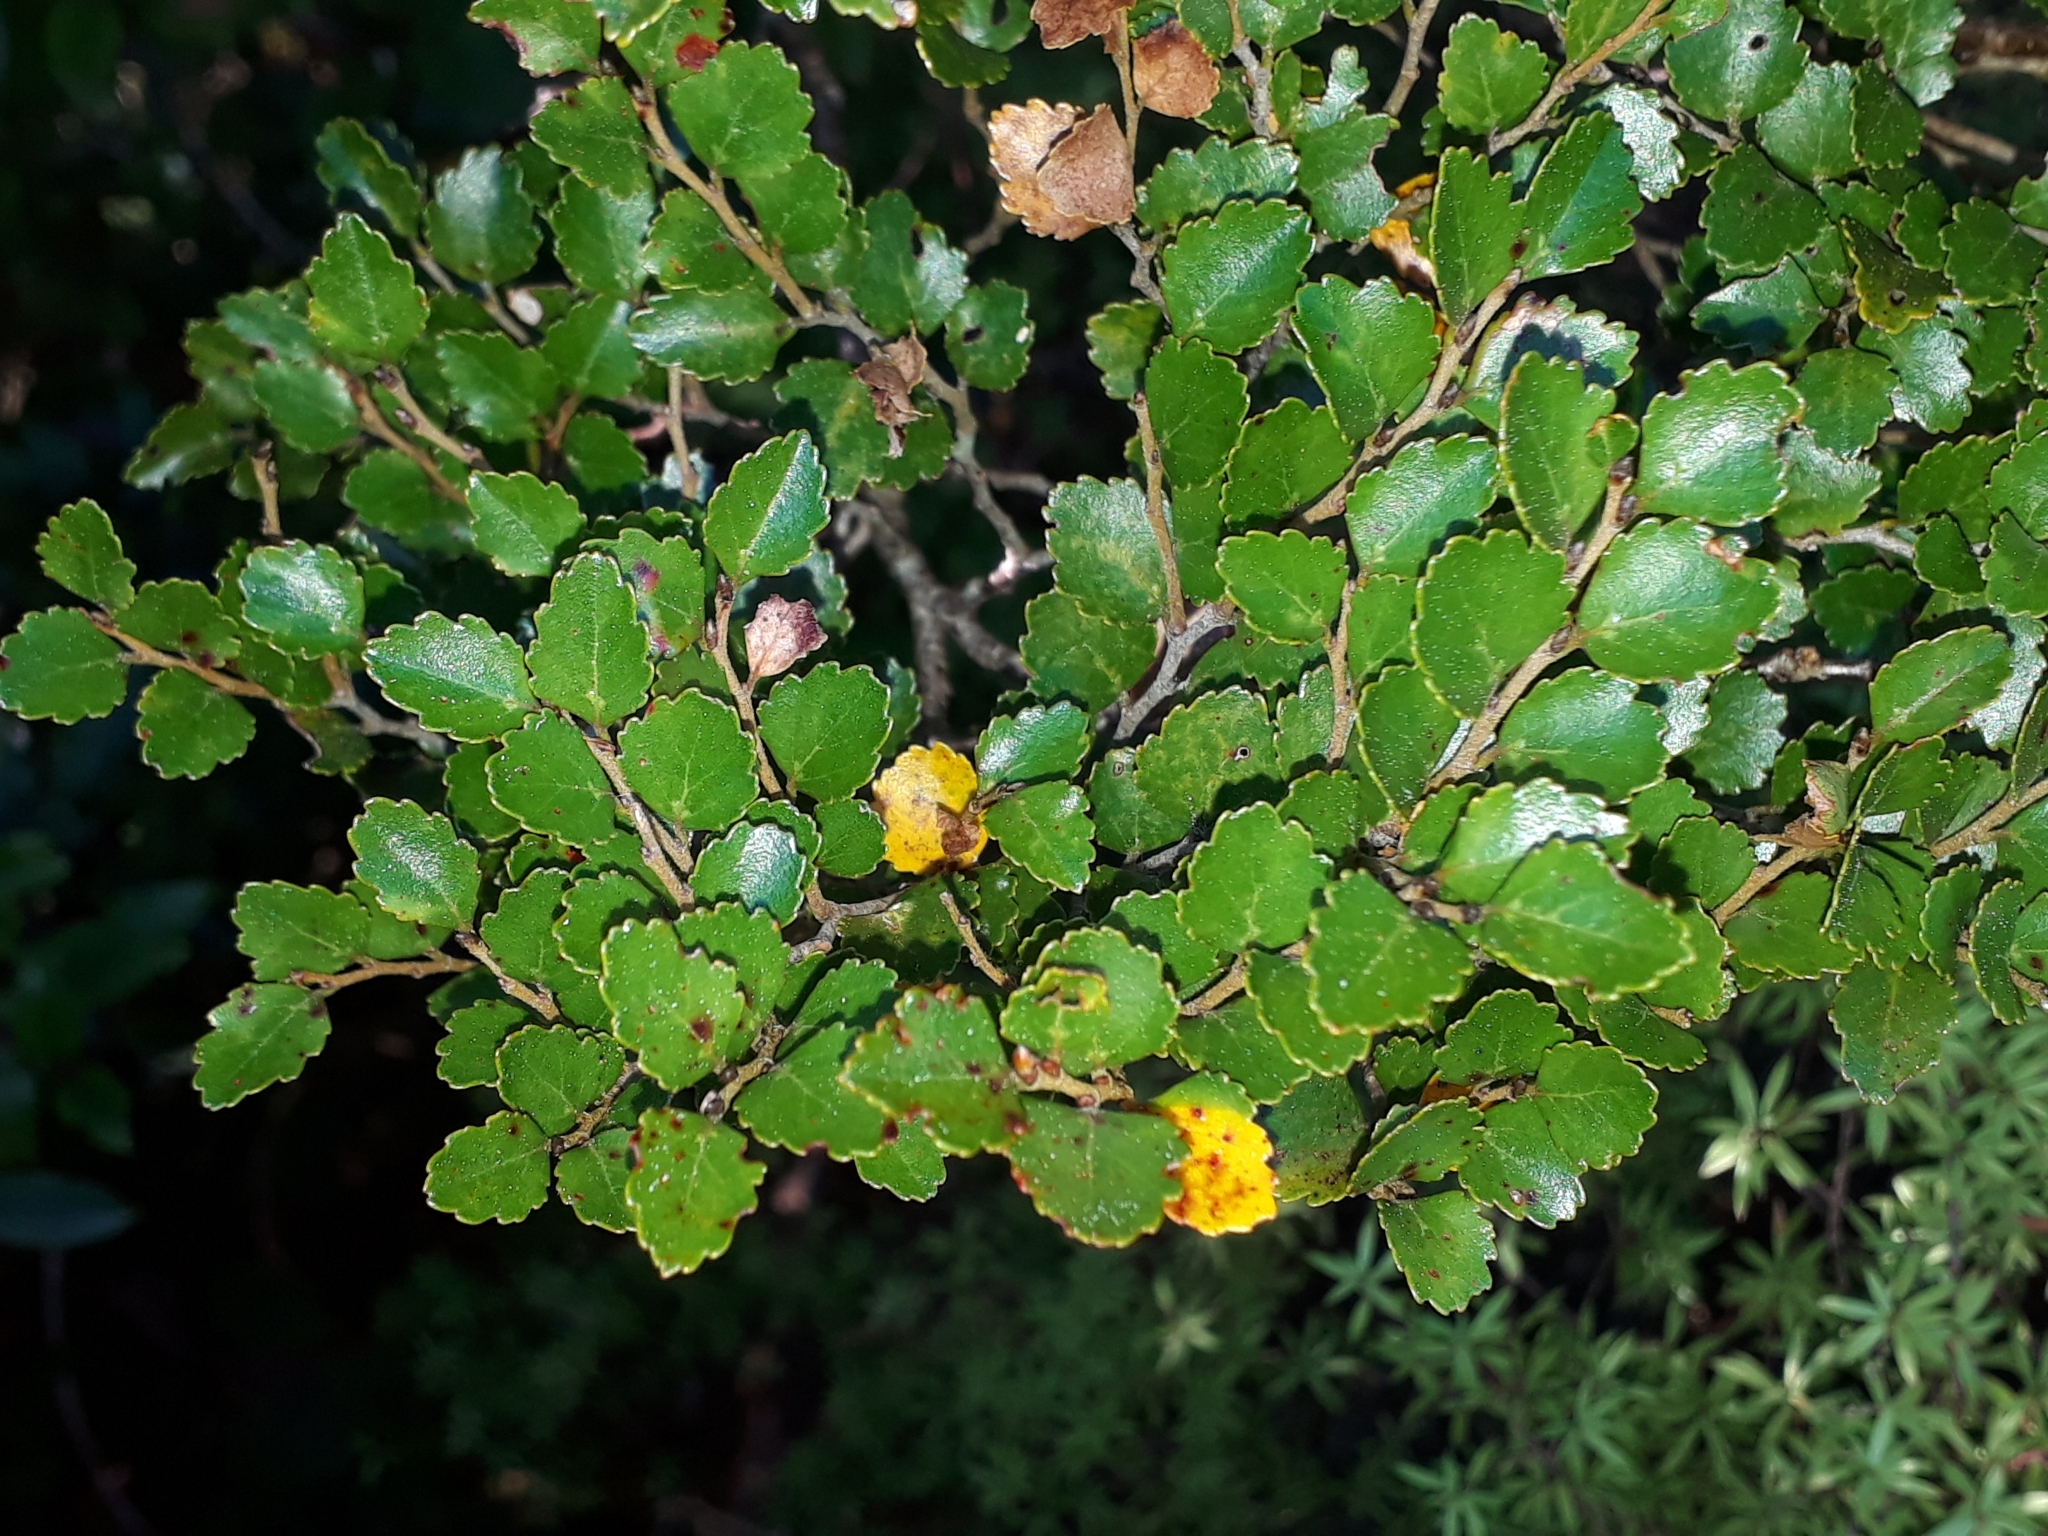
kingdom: Plantae
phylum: Tracheophyta
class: Magnoliopsida
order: Fagales
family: Nothofagaceae
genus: Nothofagus
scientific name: Nothofagus menziesii
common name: Silver beech
